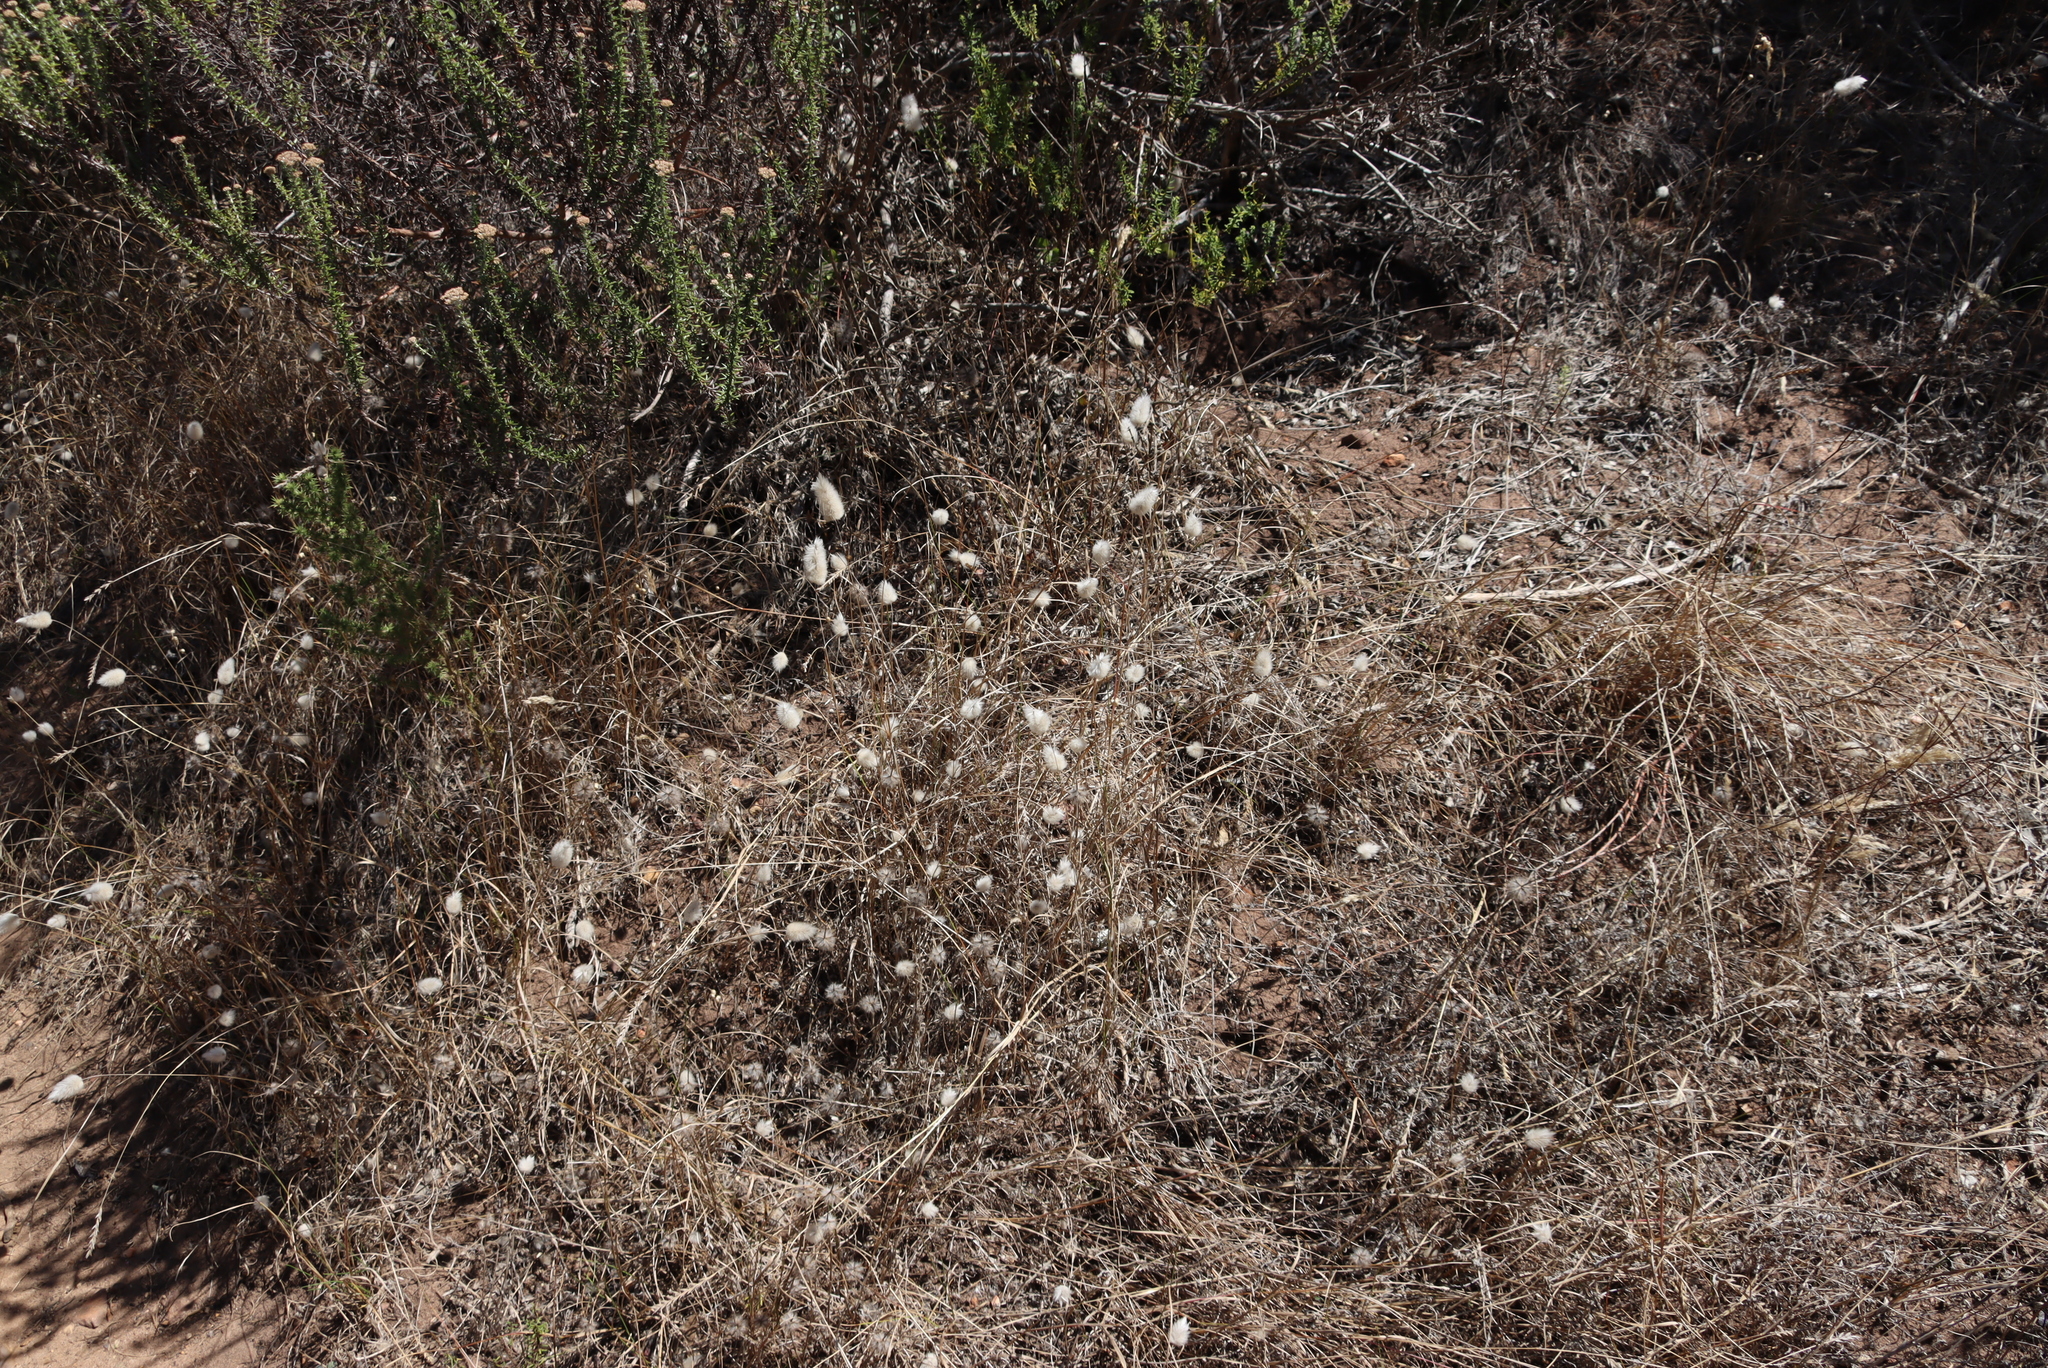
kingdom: Plantae
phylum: Tracheophyta
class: Liliopsida
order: Poales
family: Poaceae
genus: Lagurus
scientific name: Lagurus ovatus
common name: Hare's-tail
